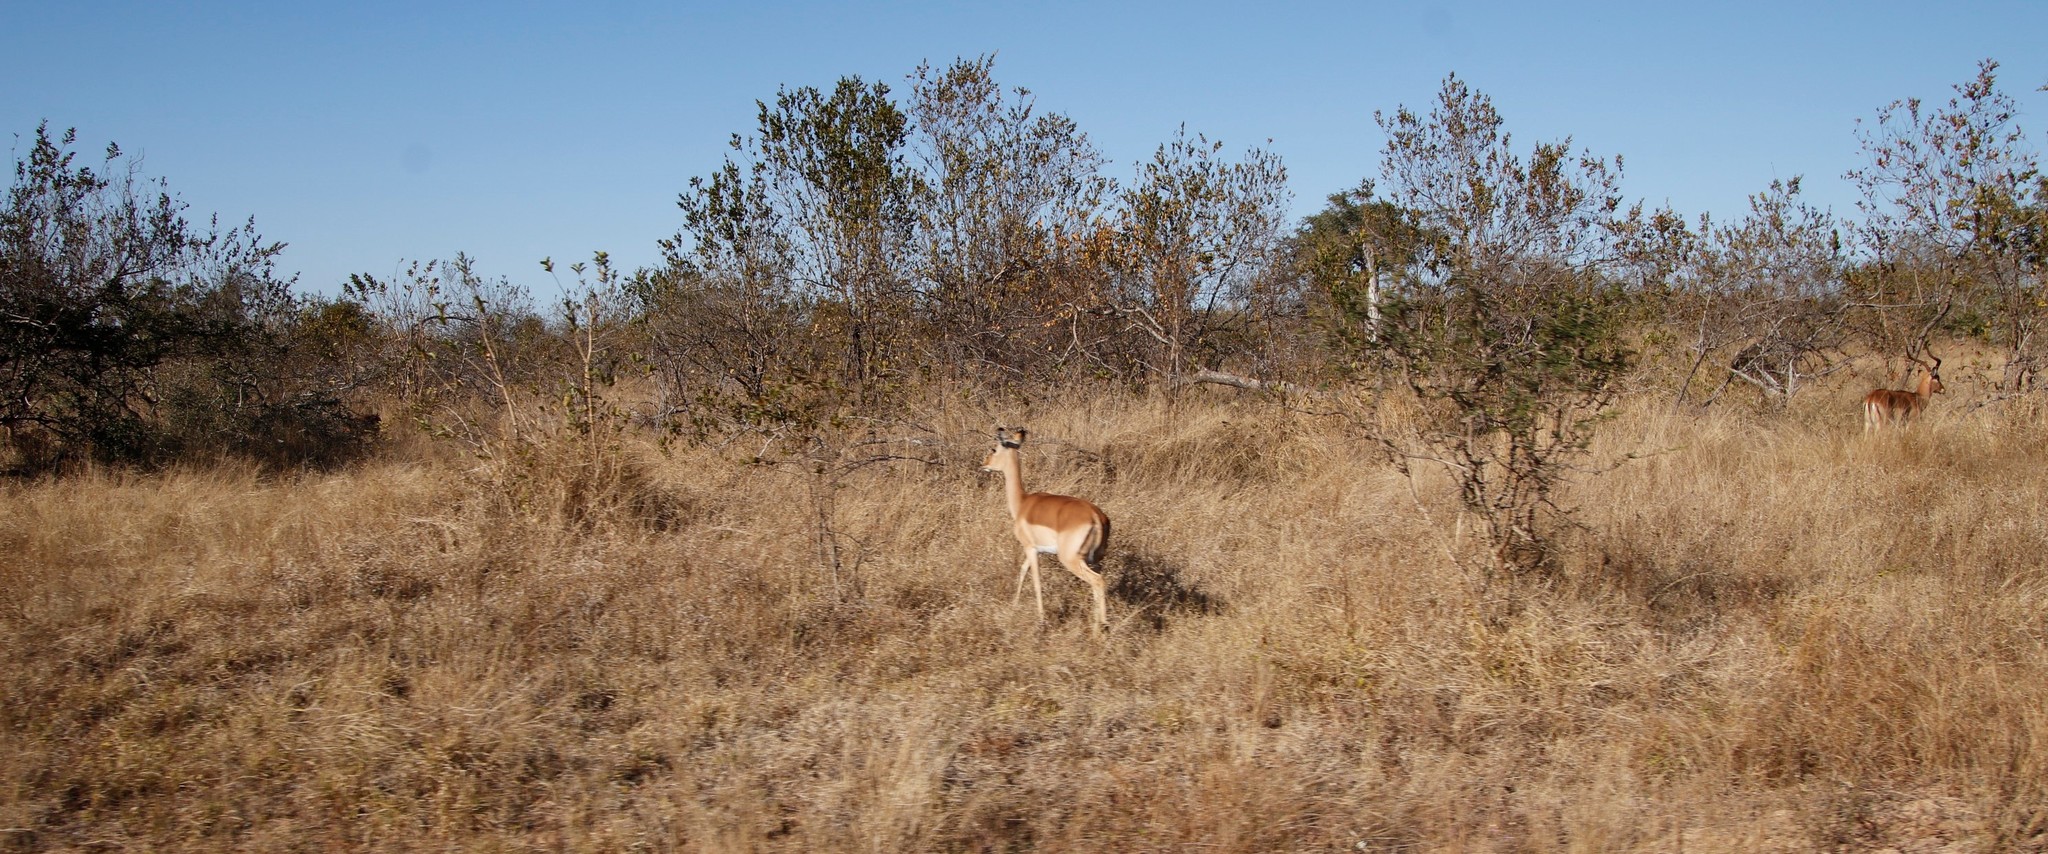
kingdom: Animalia
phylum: Chordata
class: Mammalia
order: Artiodactyla
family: Bovidae
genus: Aepyceros
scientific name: Aepyceros melampus
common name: Impala
